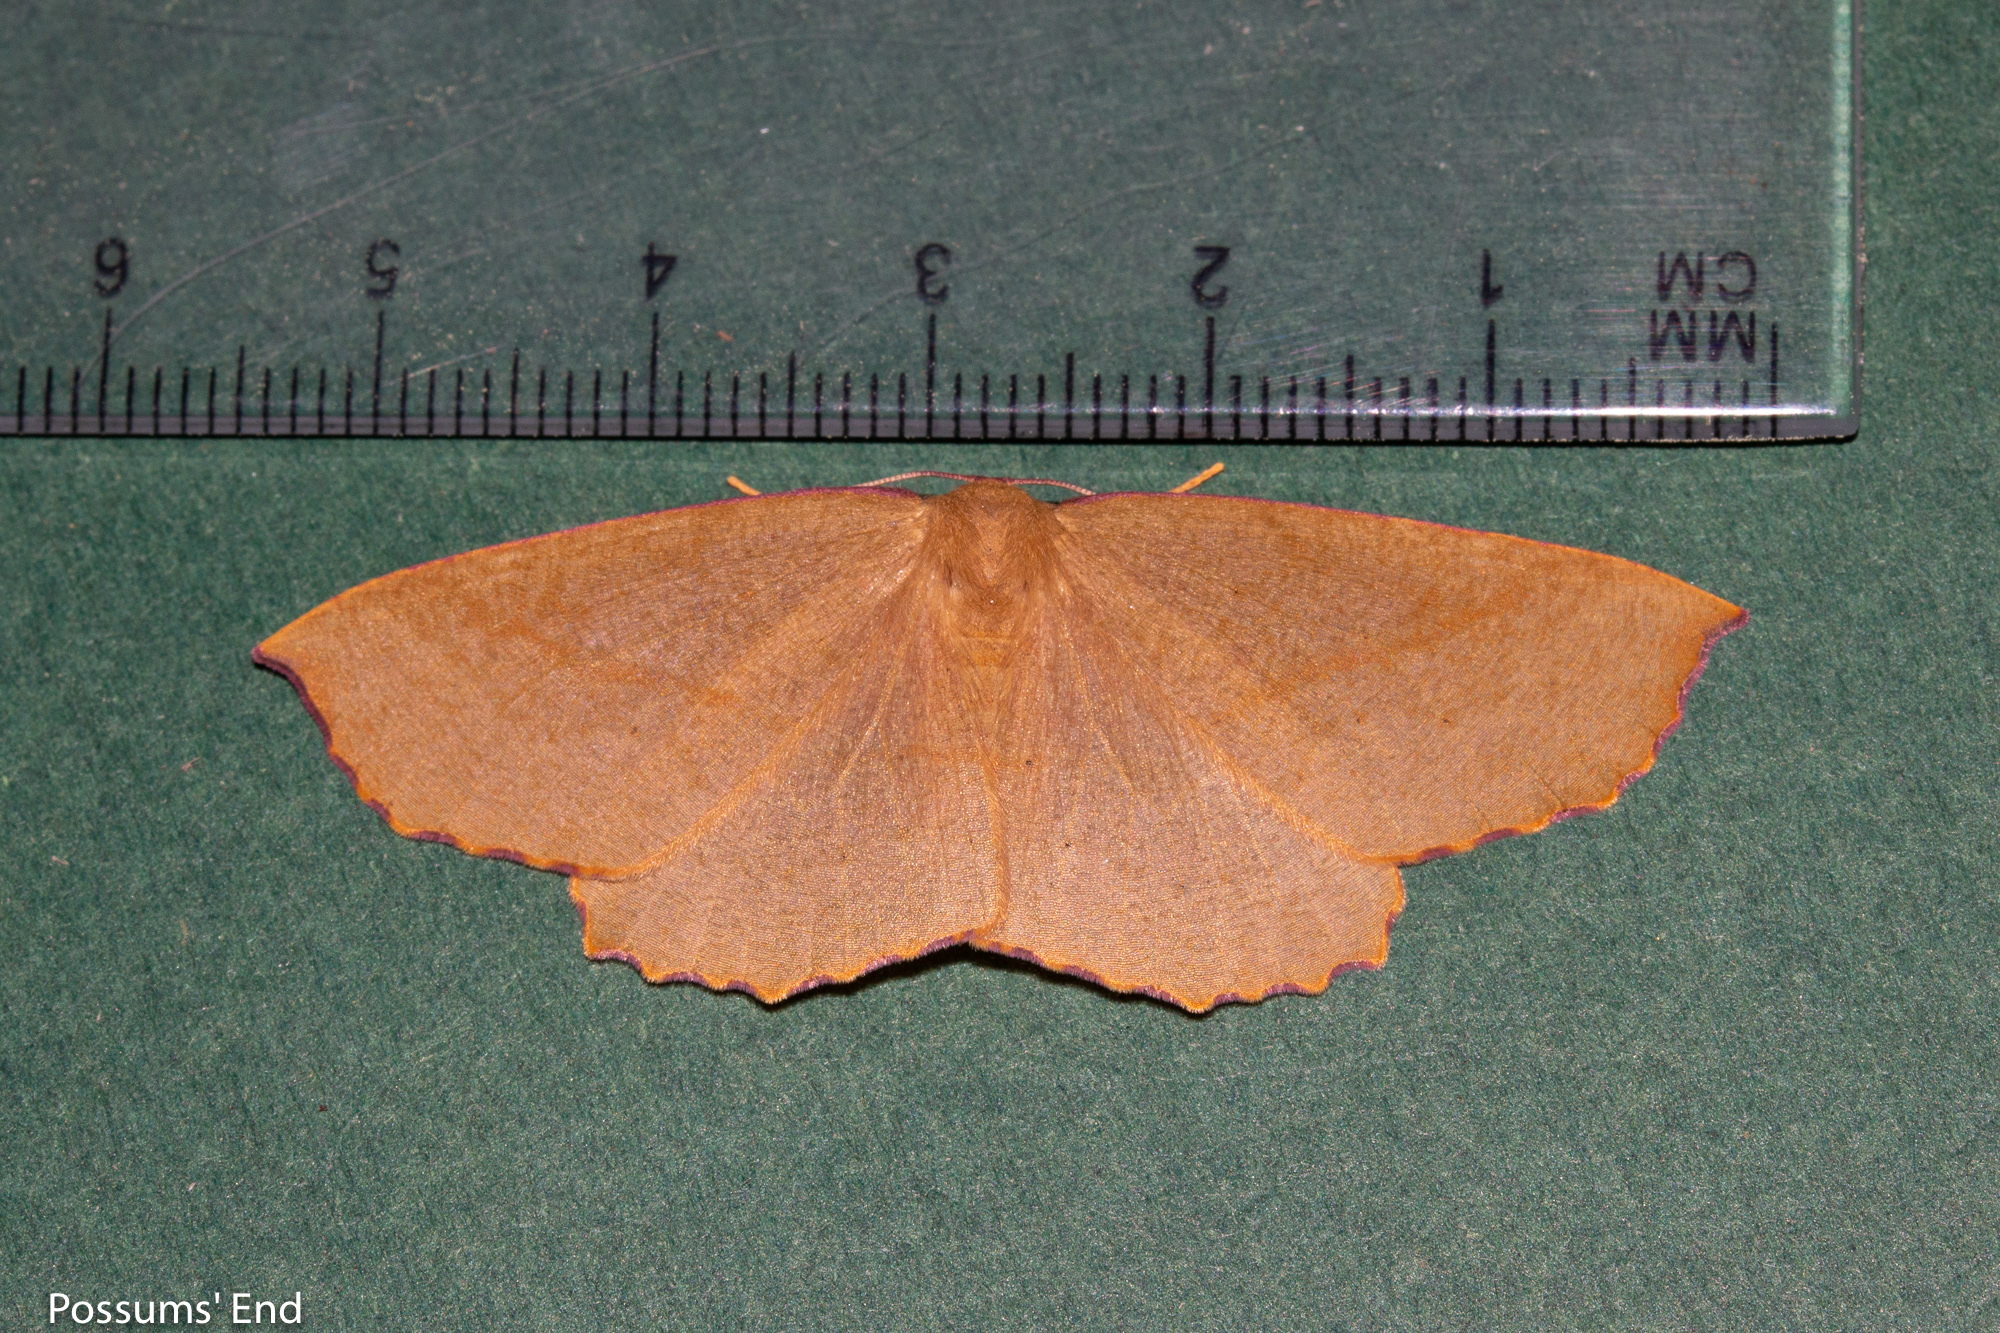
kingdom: Animalia
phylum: Arthropoda
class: Insecta
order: Lepidoptera
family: Geometridae
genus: Xyridacma
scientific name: Xyridacma alectoraria
